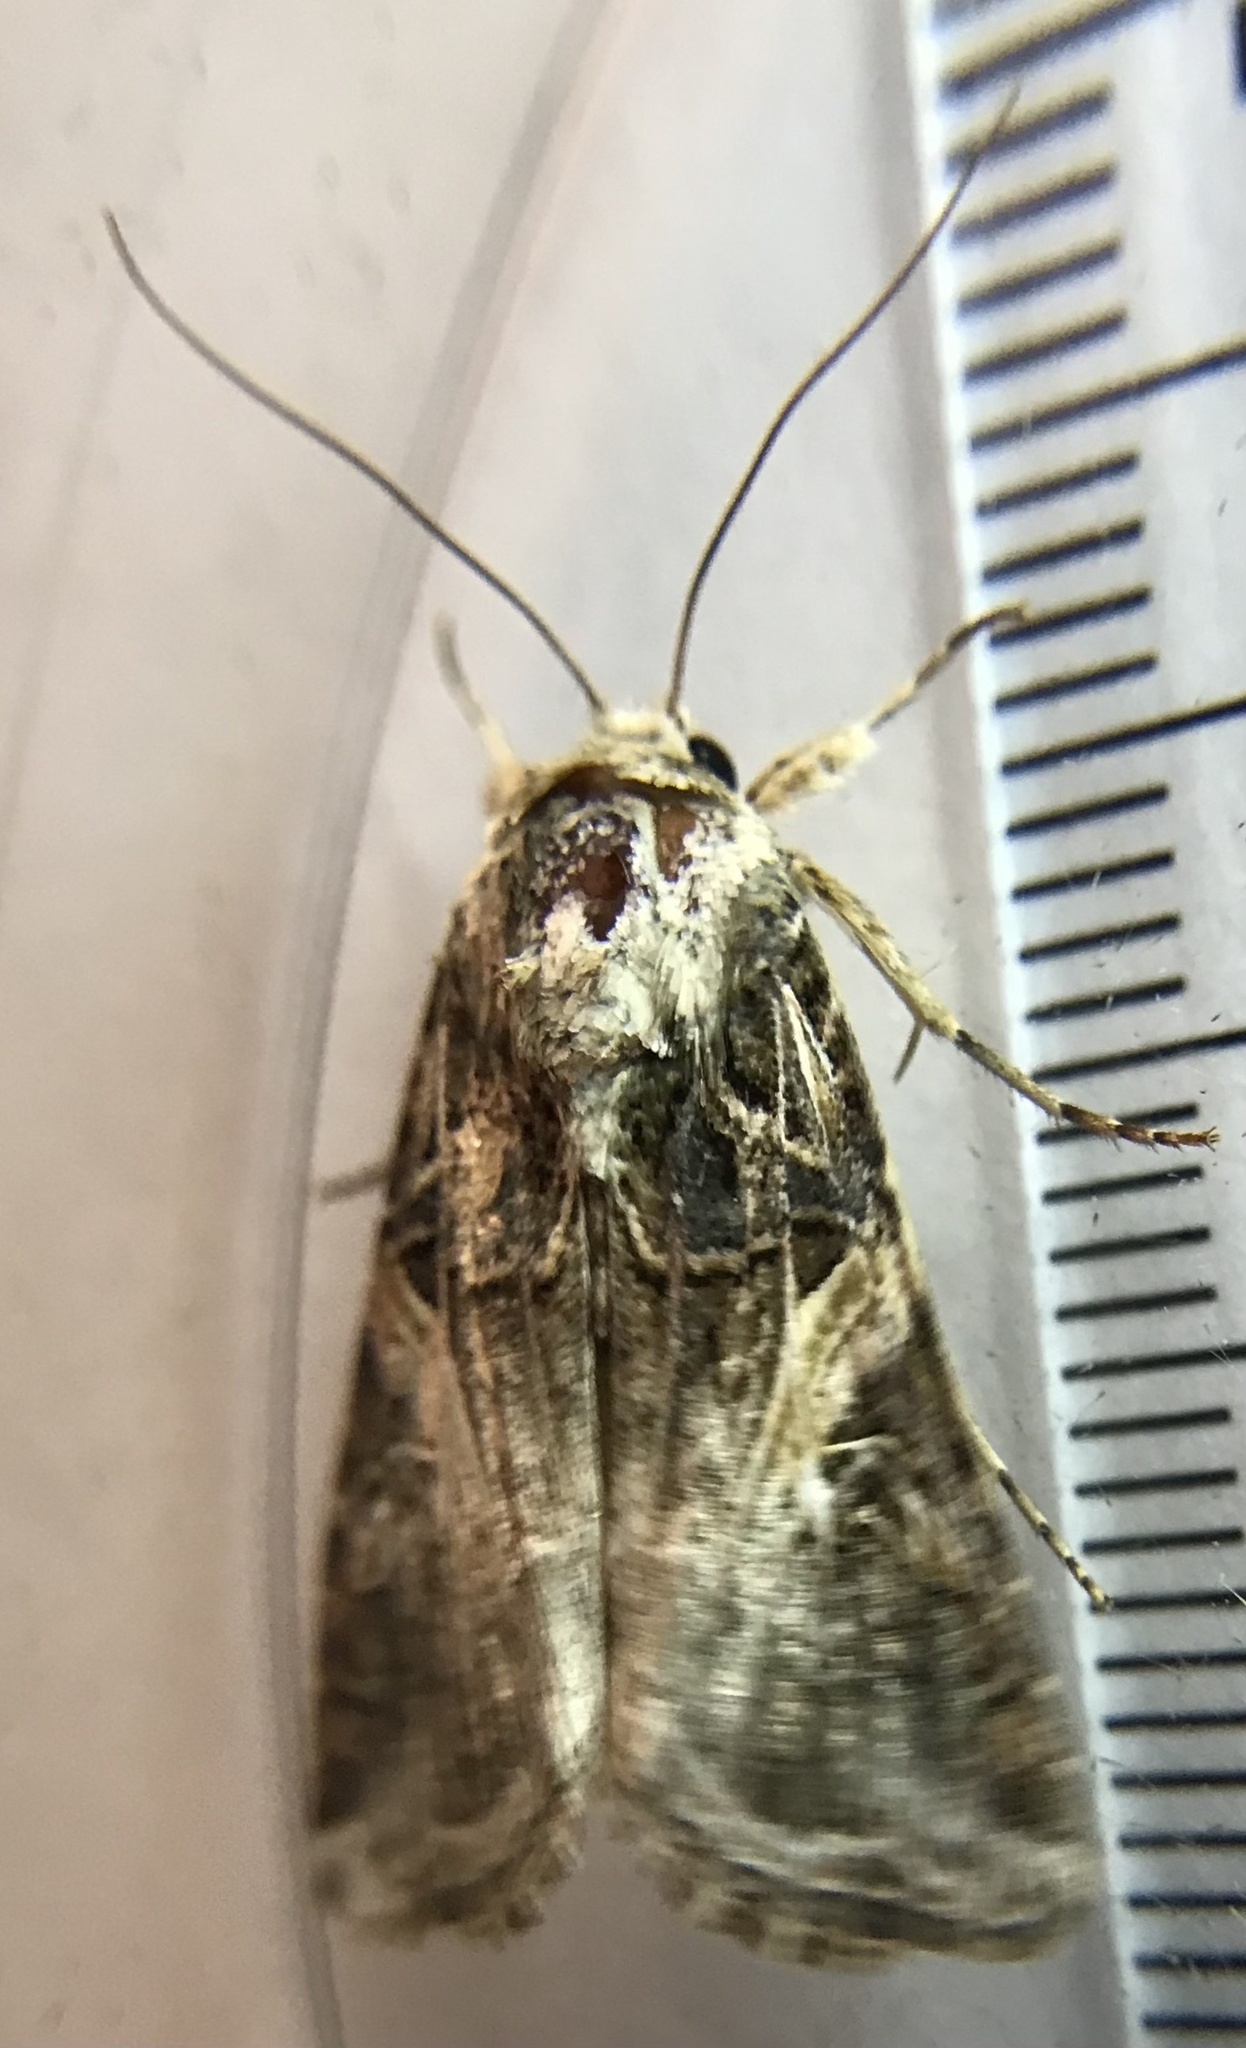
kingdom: Animalia
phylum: Arthropoda
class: Insecta
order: Lepidoptera
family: Noctuidae
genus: Spodoptera
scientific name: Spodoptera ornithogalli
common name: Yellow-striped armyworm
